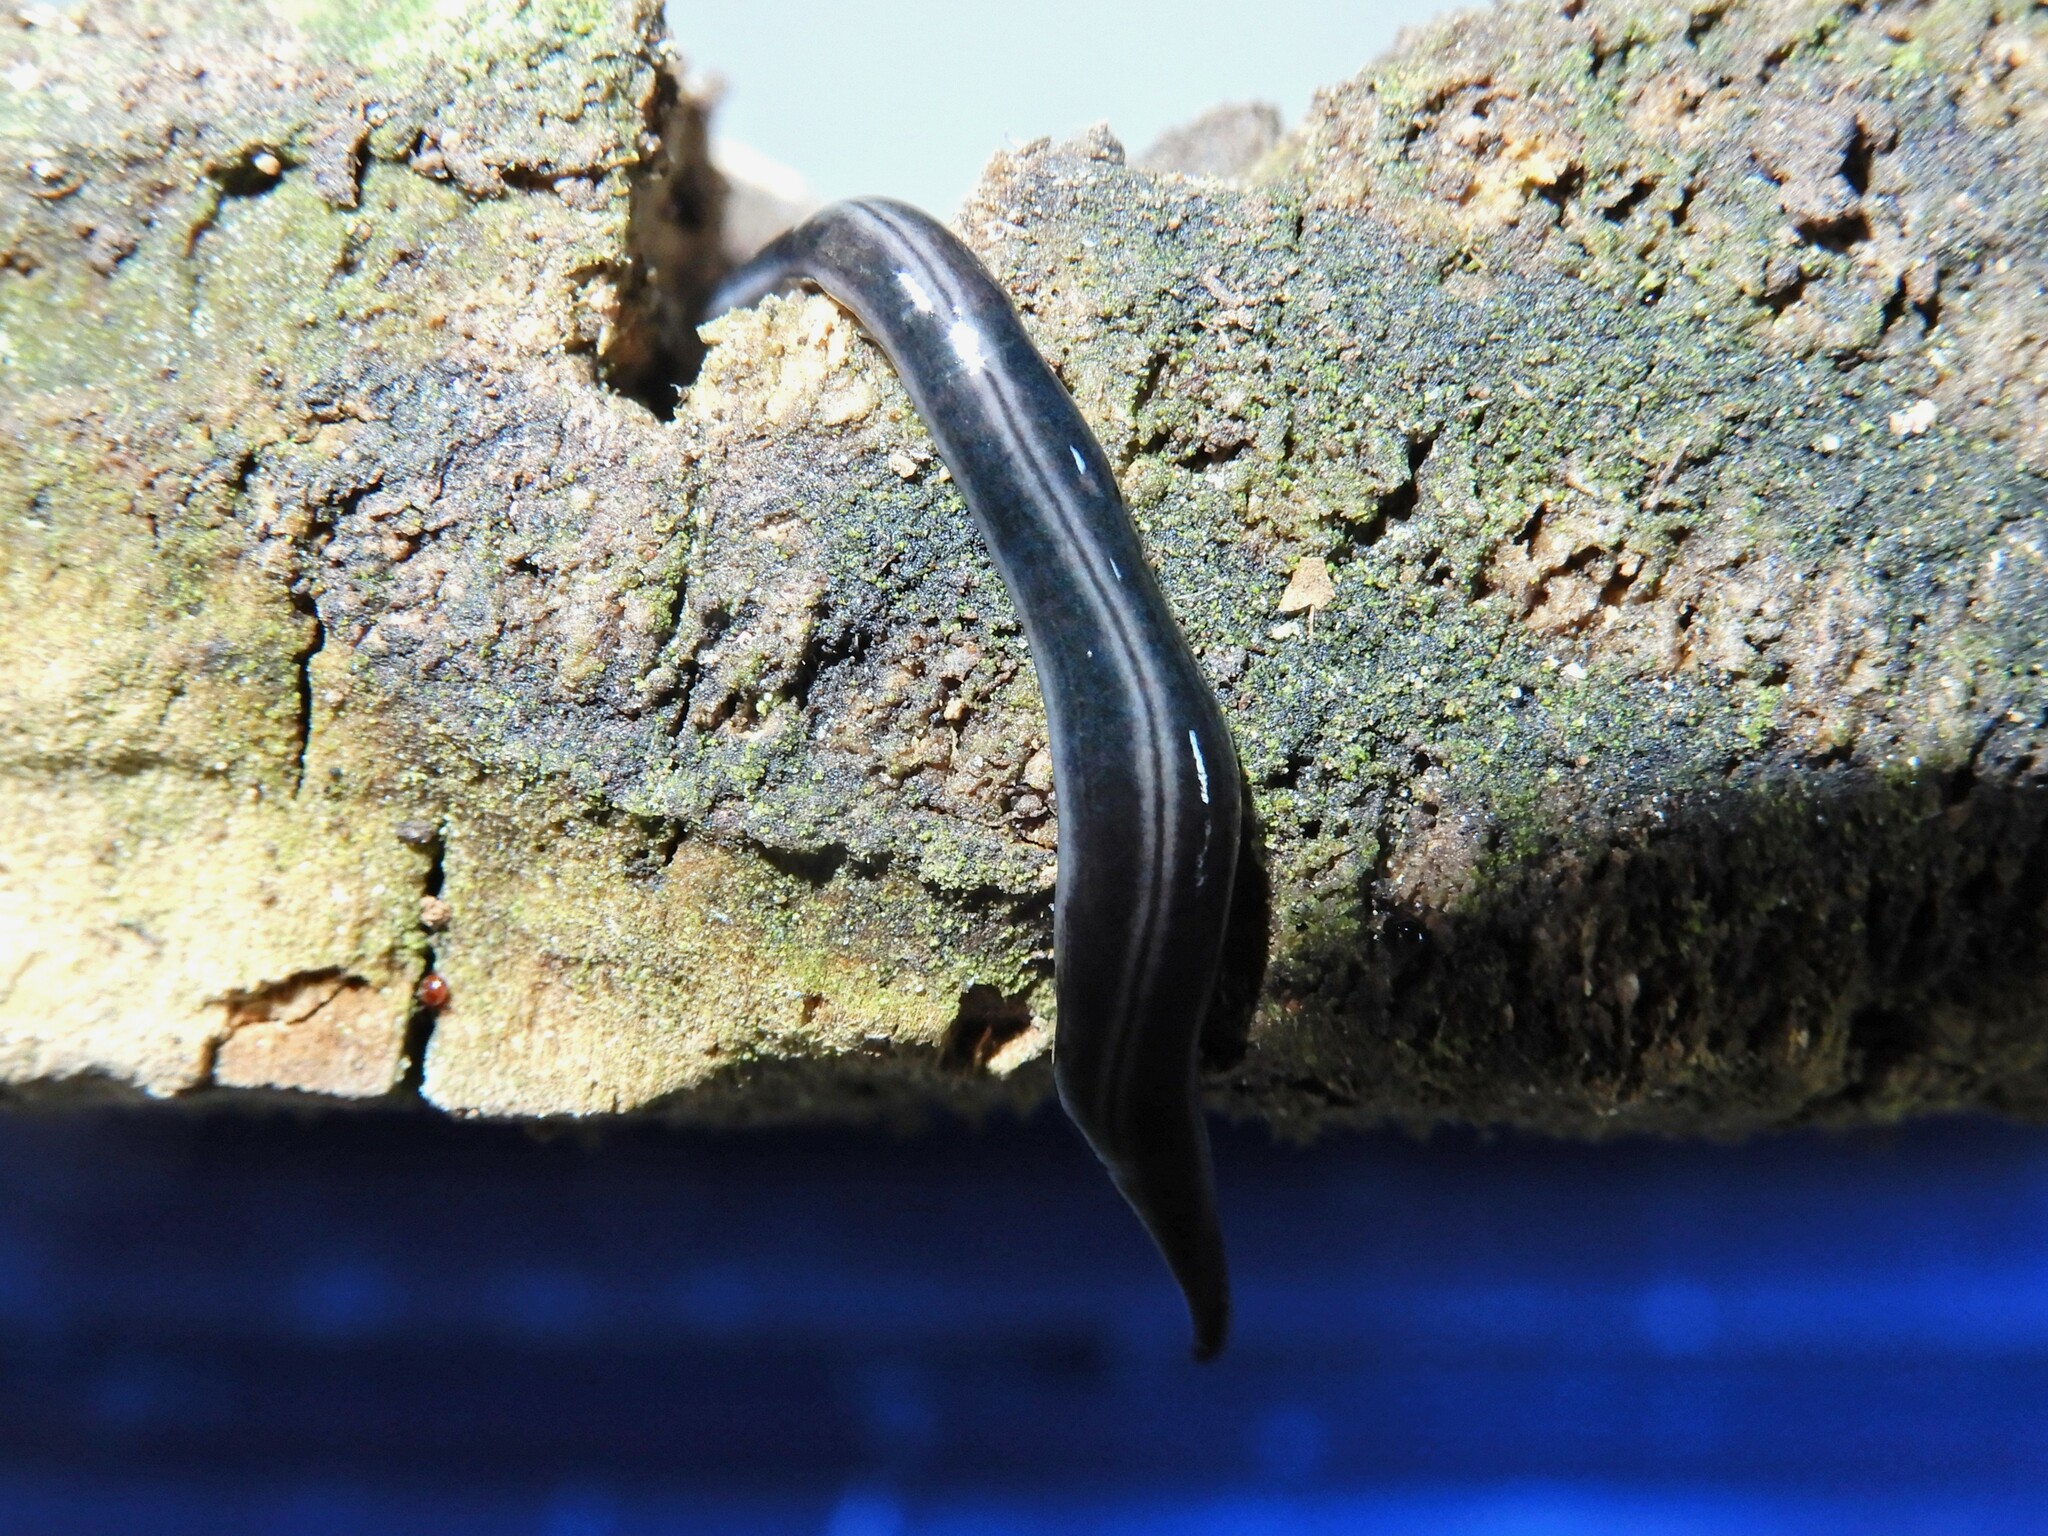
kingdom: Animalia
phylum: Platyhelminthes
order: Tricladida
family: Geoplanidae
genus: Parakontikia
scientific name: Parakontikia ventrolineata
